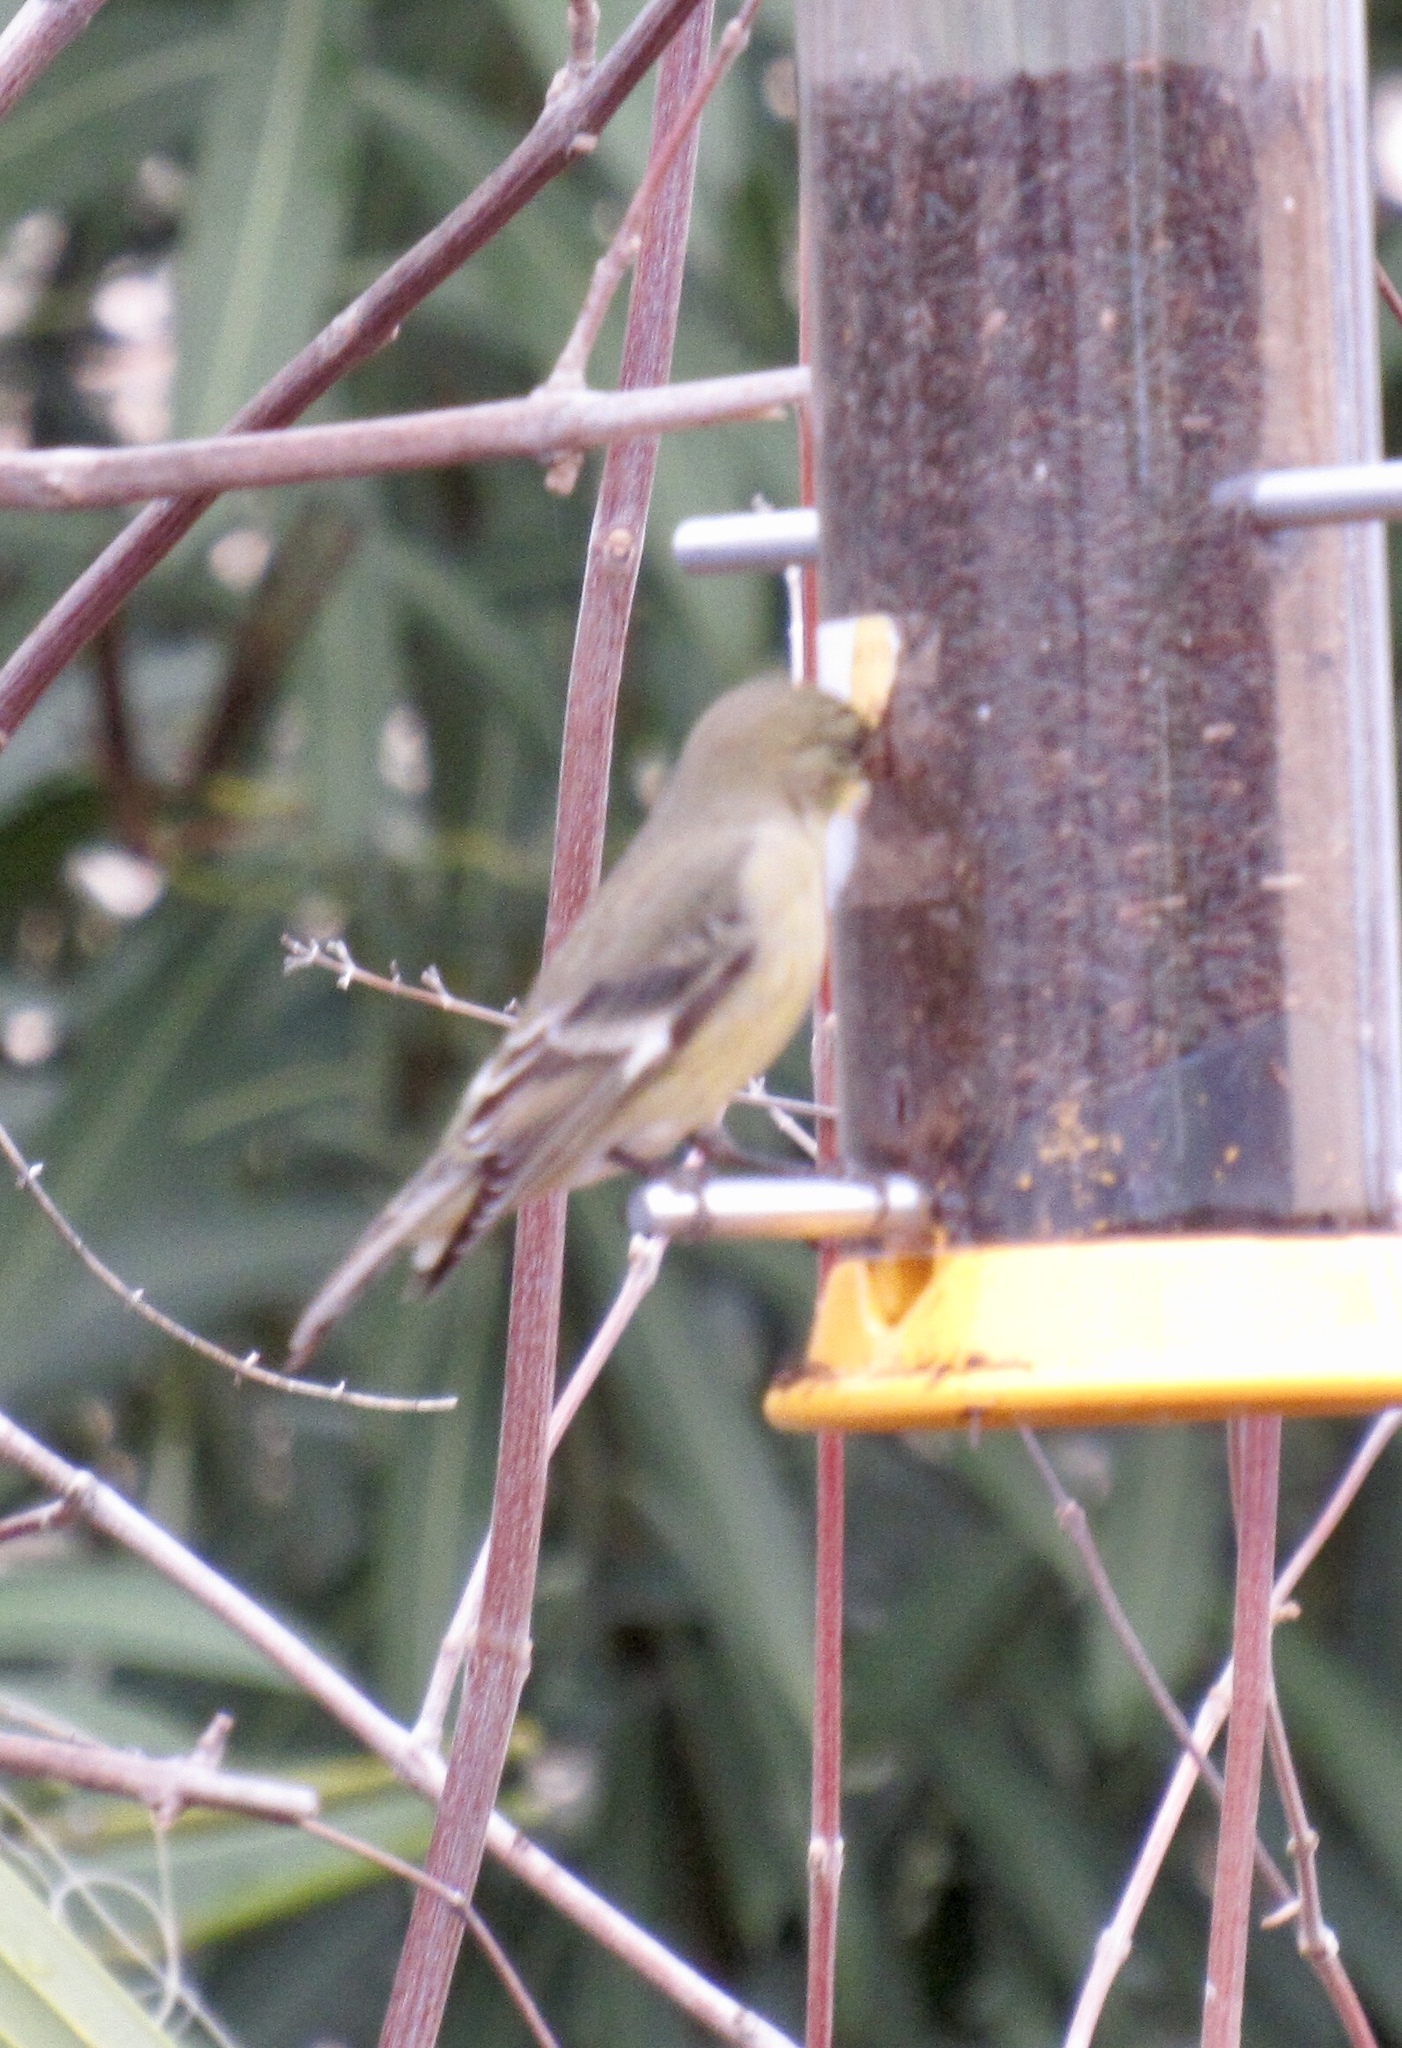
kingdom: Animalia
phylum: Chordata
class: Aves
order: Passeriformes
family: Fringillidae
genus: Spinus
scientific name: Spinus psaltria
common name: Lesser goldfinch
